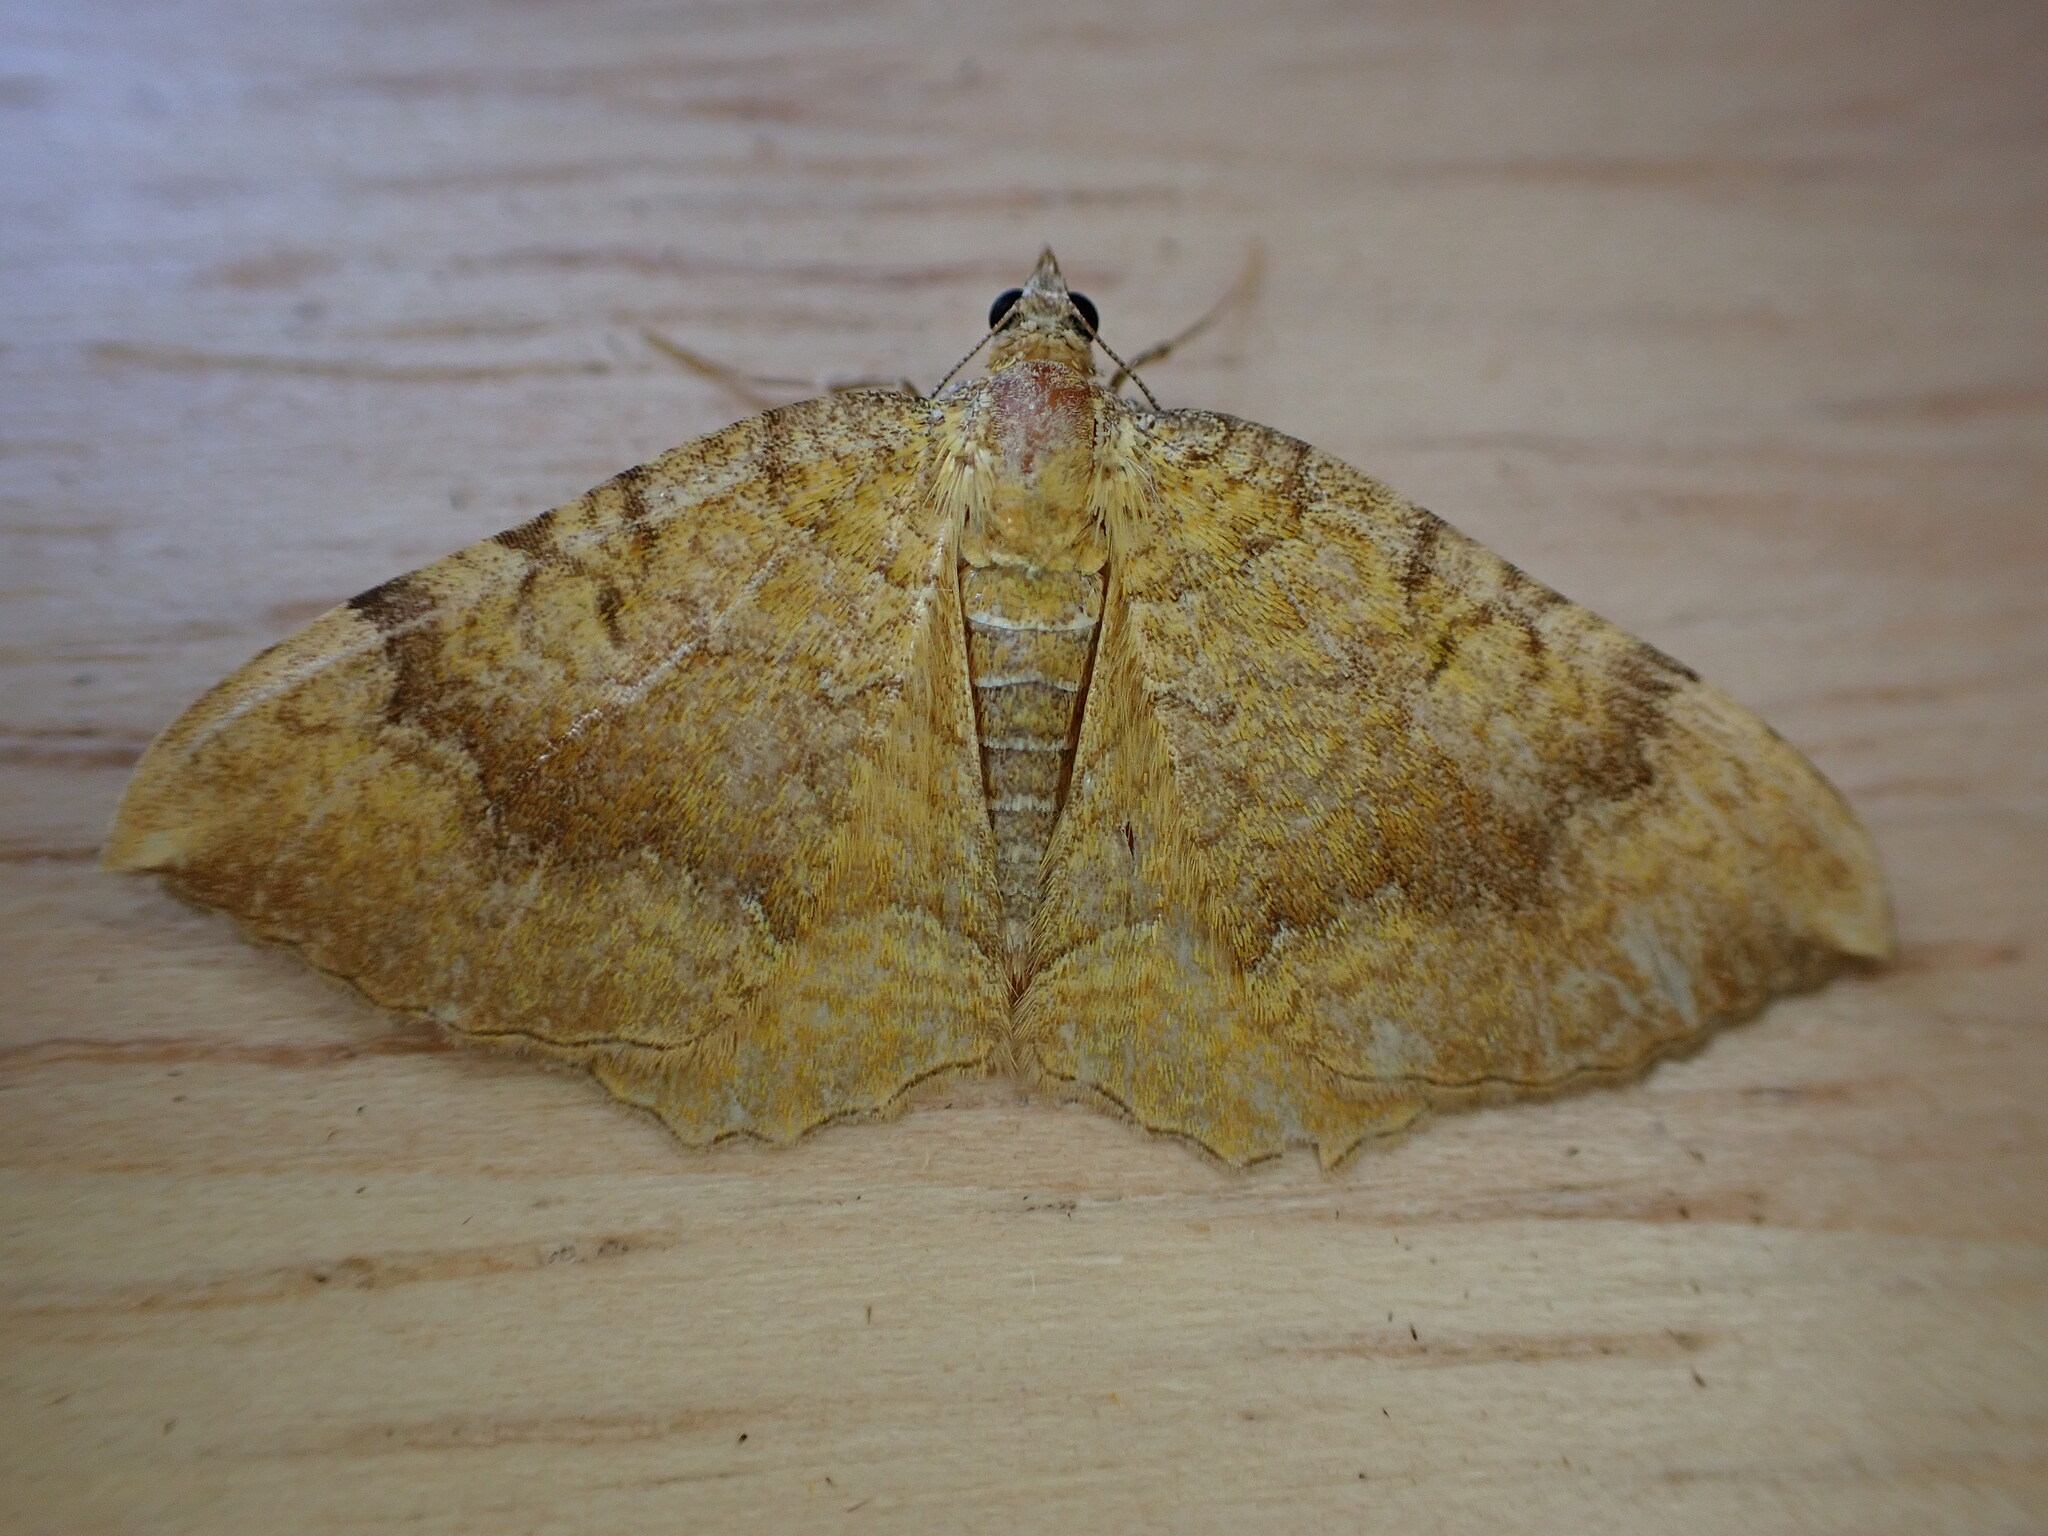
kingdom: Animalia
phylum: Arthropoda
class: Insecta
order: Lepidoptera
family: Geometridae
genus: Camptogramma
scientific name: Camptogramma bilineata
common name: Yellow shell
